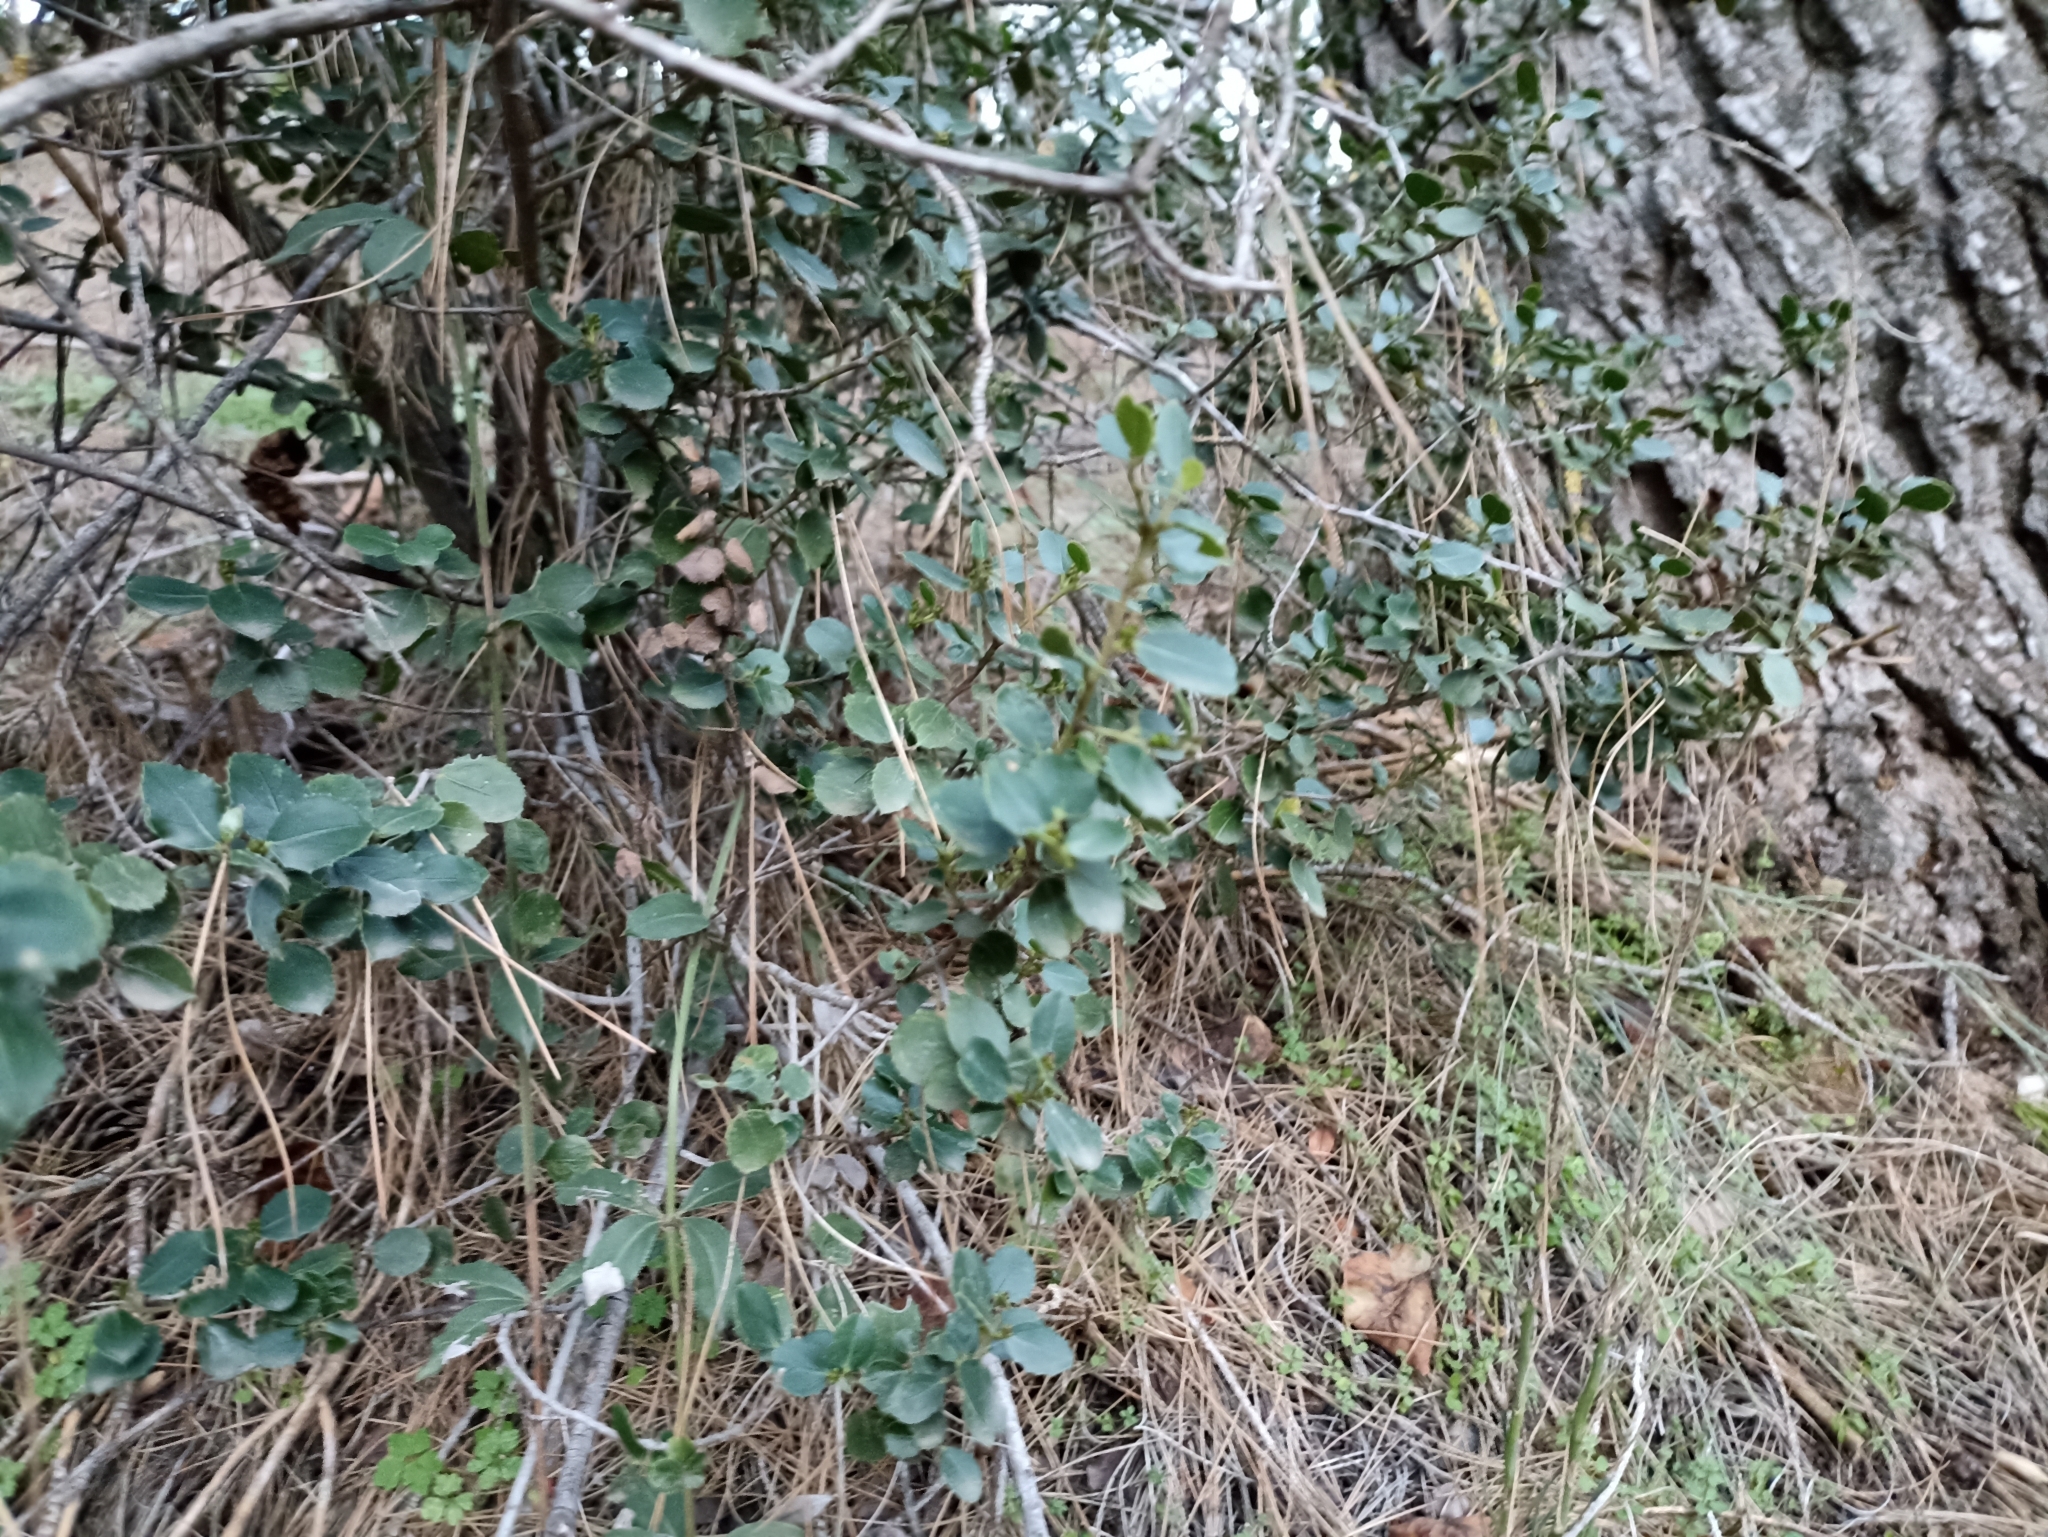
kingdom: Plantae
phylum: Tracheophyta
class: Magnoliopsida
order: Rosales
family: Rhamnaceae
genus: Rhamnus
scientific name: Rhamnus alaternus
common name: Mediterranean buckthorn
